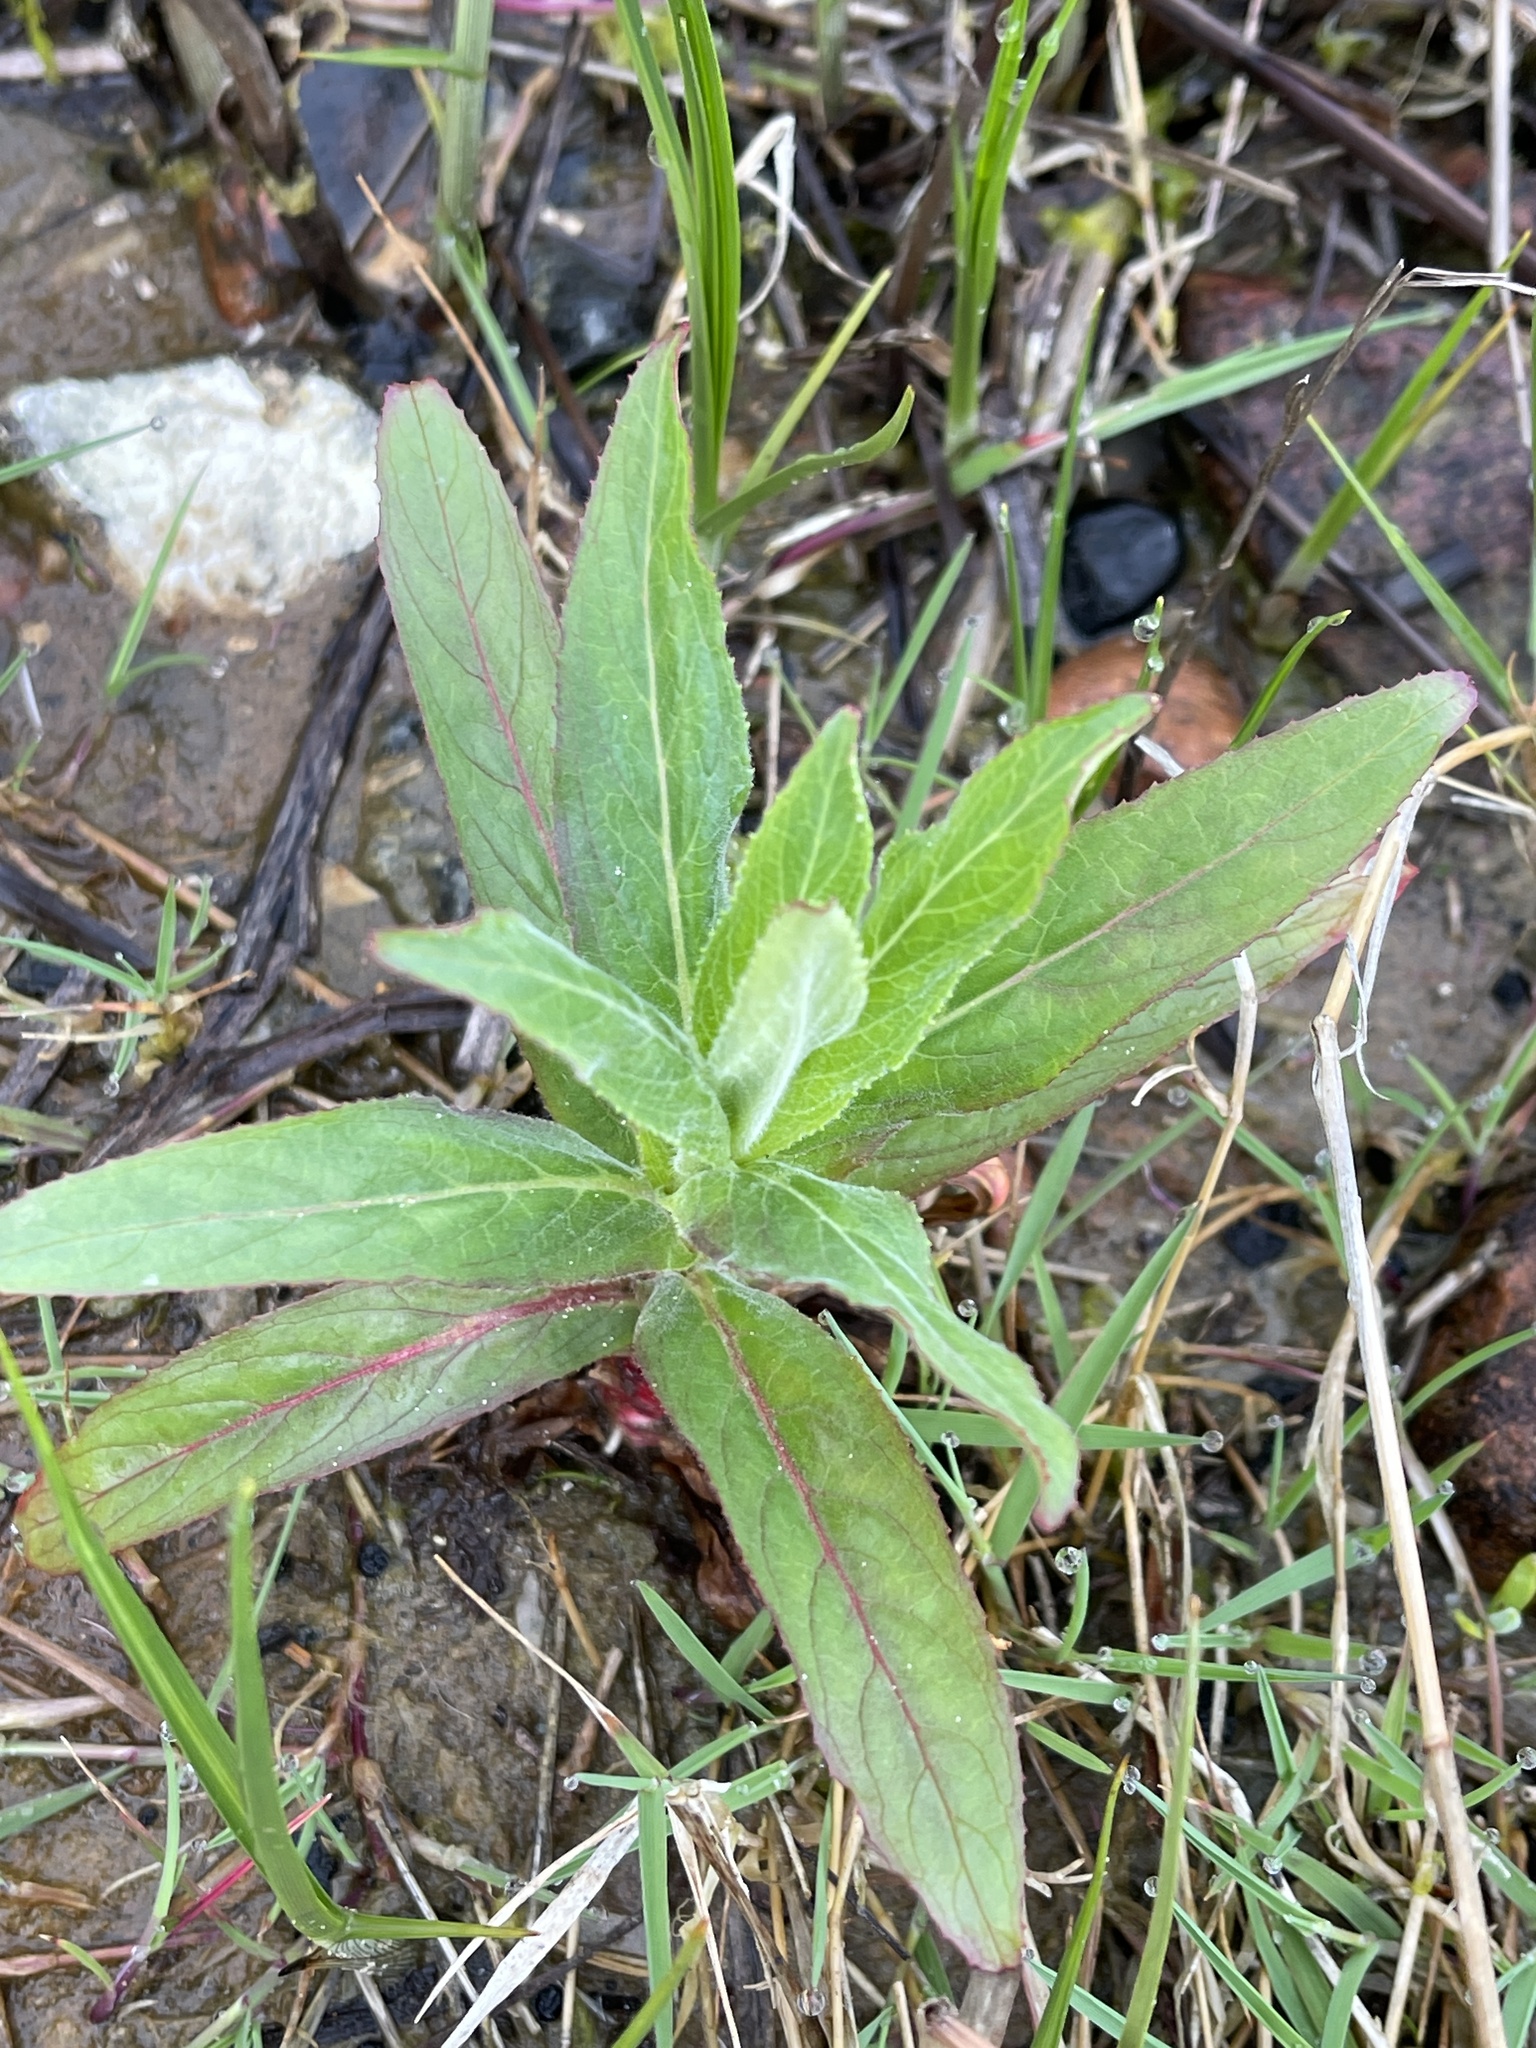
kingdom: Plantae
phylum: Tracheophyta
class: Magnoliopsida
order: Myrtales
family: Onagraceae
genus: Epilobium
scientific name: Epilobium hirsutum
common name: Great willowherb
